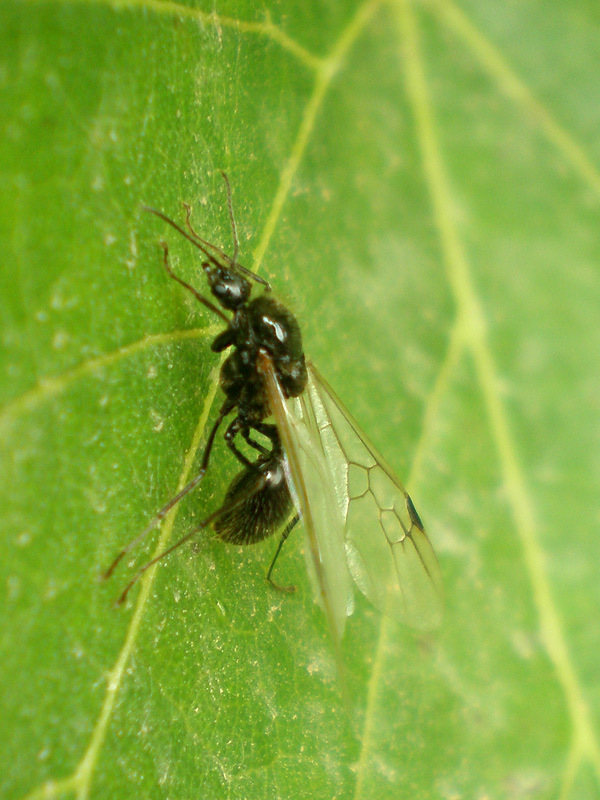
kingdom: Animalia
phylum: Arthropoda
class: Insecta
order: Hymenoptera
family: Formicidae
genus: Messor
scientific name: Messor barbarus
